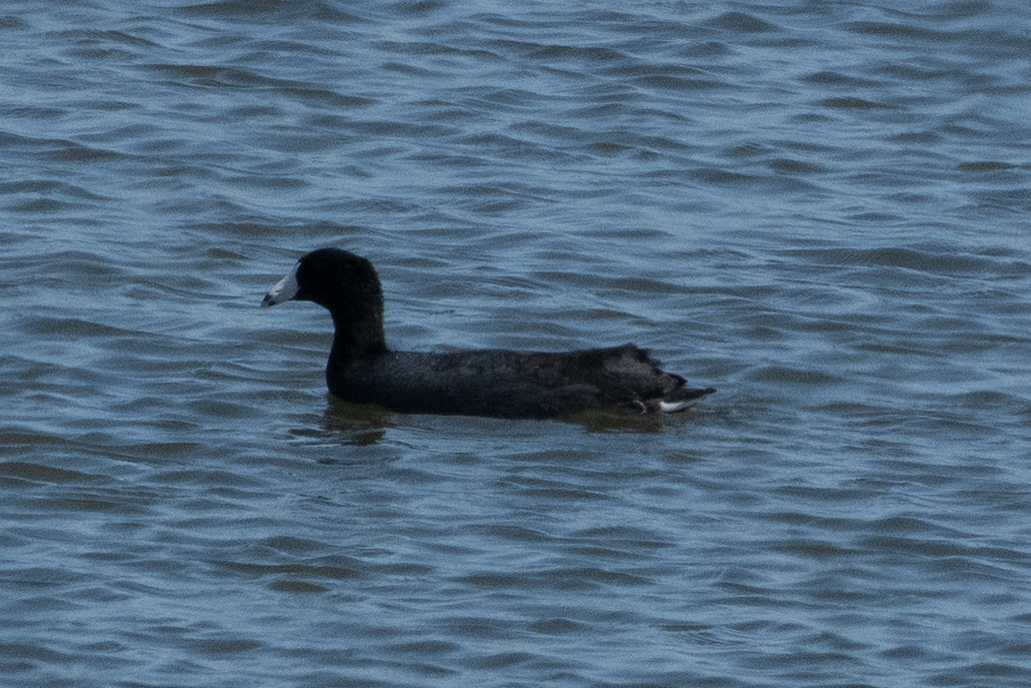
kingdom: Animalia
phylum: Chordata
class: Aves
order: Gruiformes
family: Rallidae
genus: Fulica
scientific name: Fulica americana
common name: American coot
